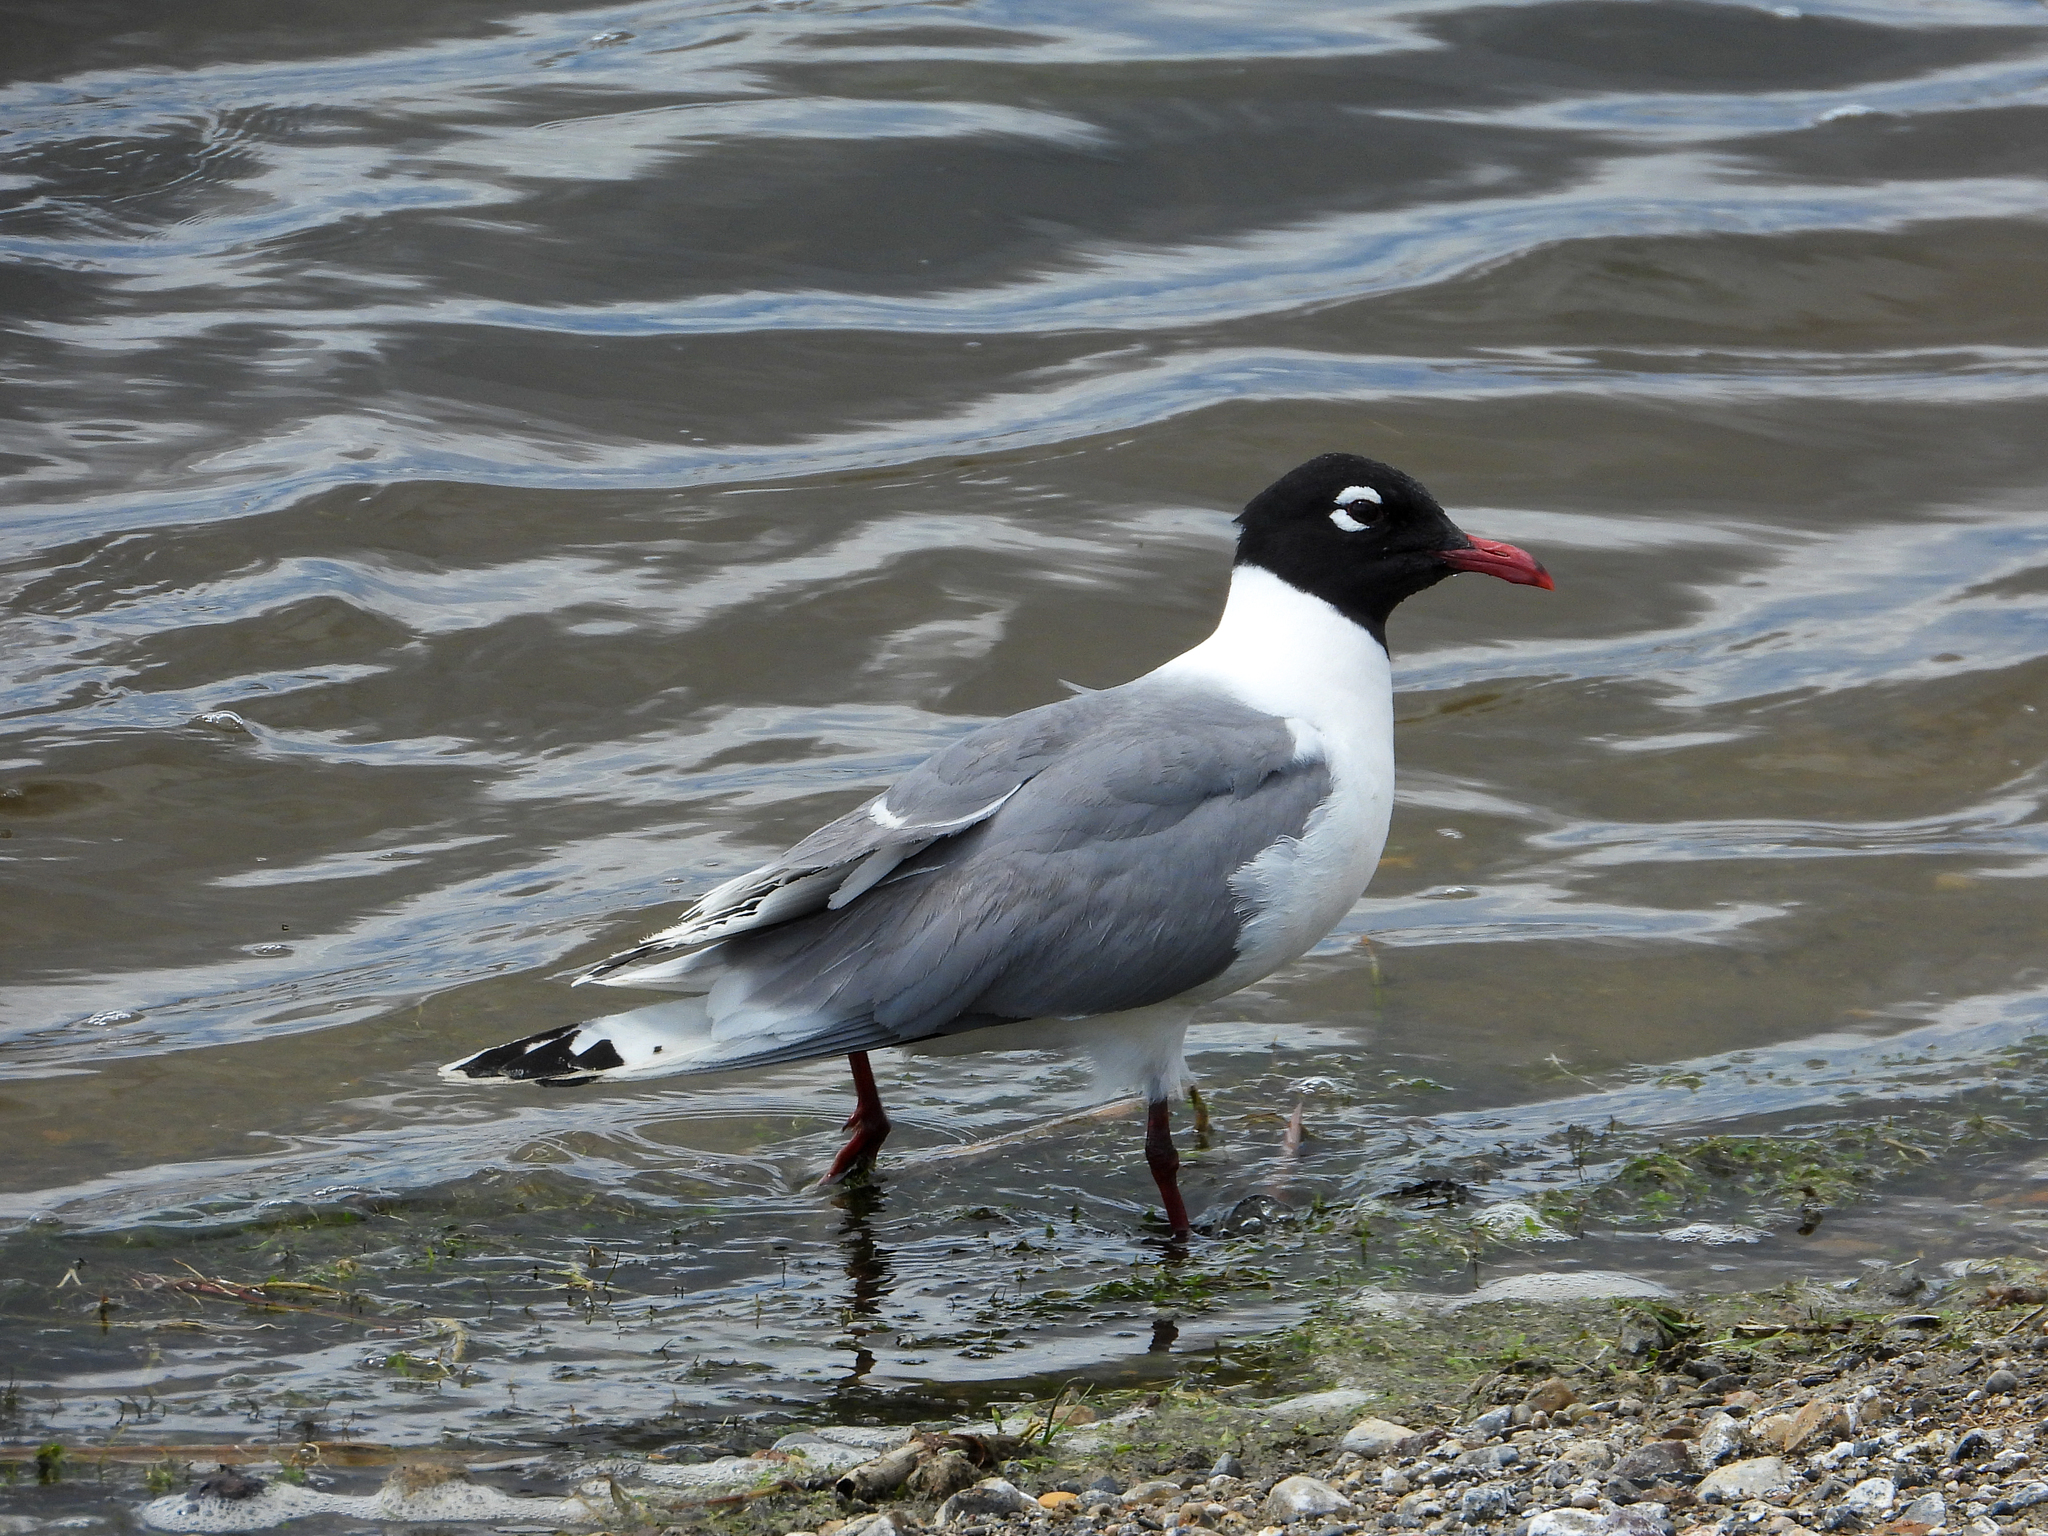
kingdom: Animalia
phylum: Chordata
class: Aves
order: Charadriiformes
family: Laridae
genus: Leucophaeus
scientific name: Leucophaeus pipixcan
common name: Franklin's gull
